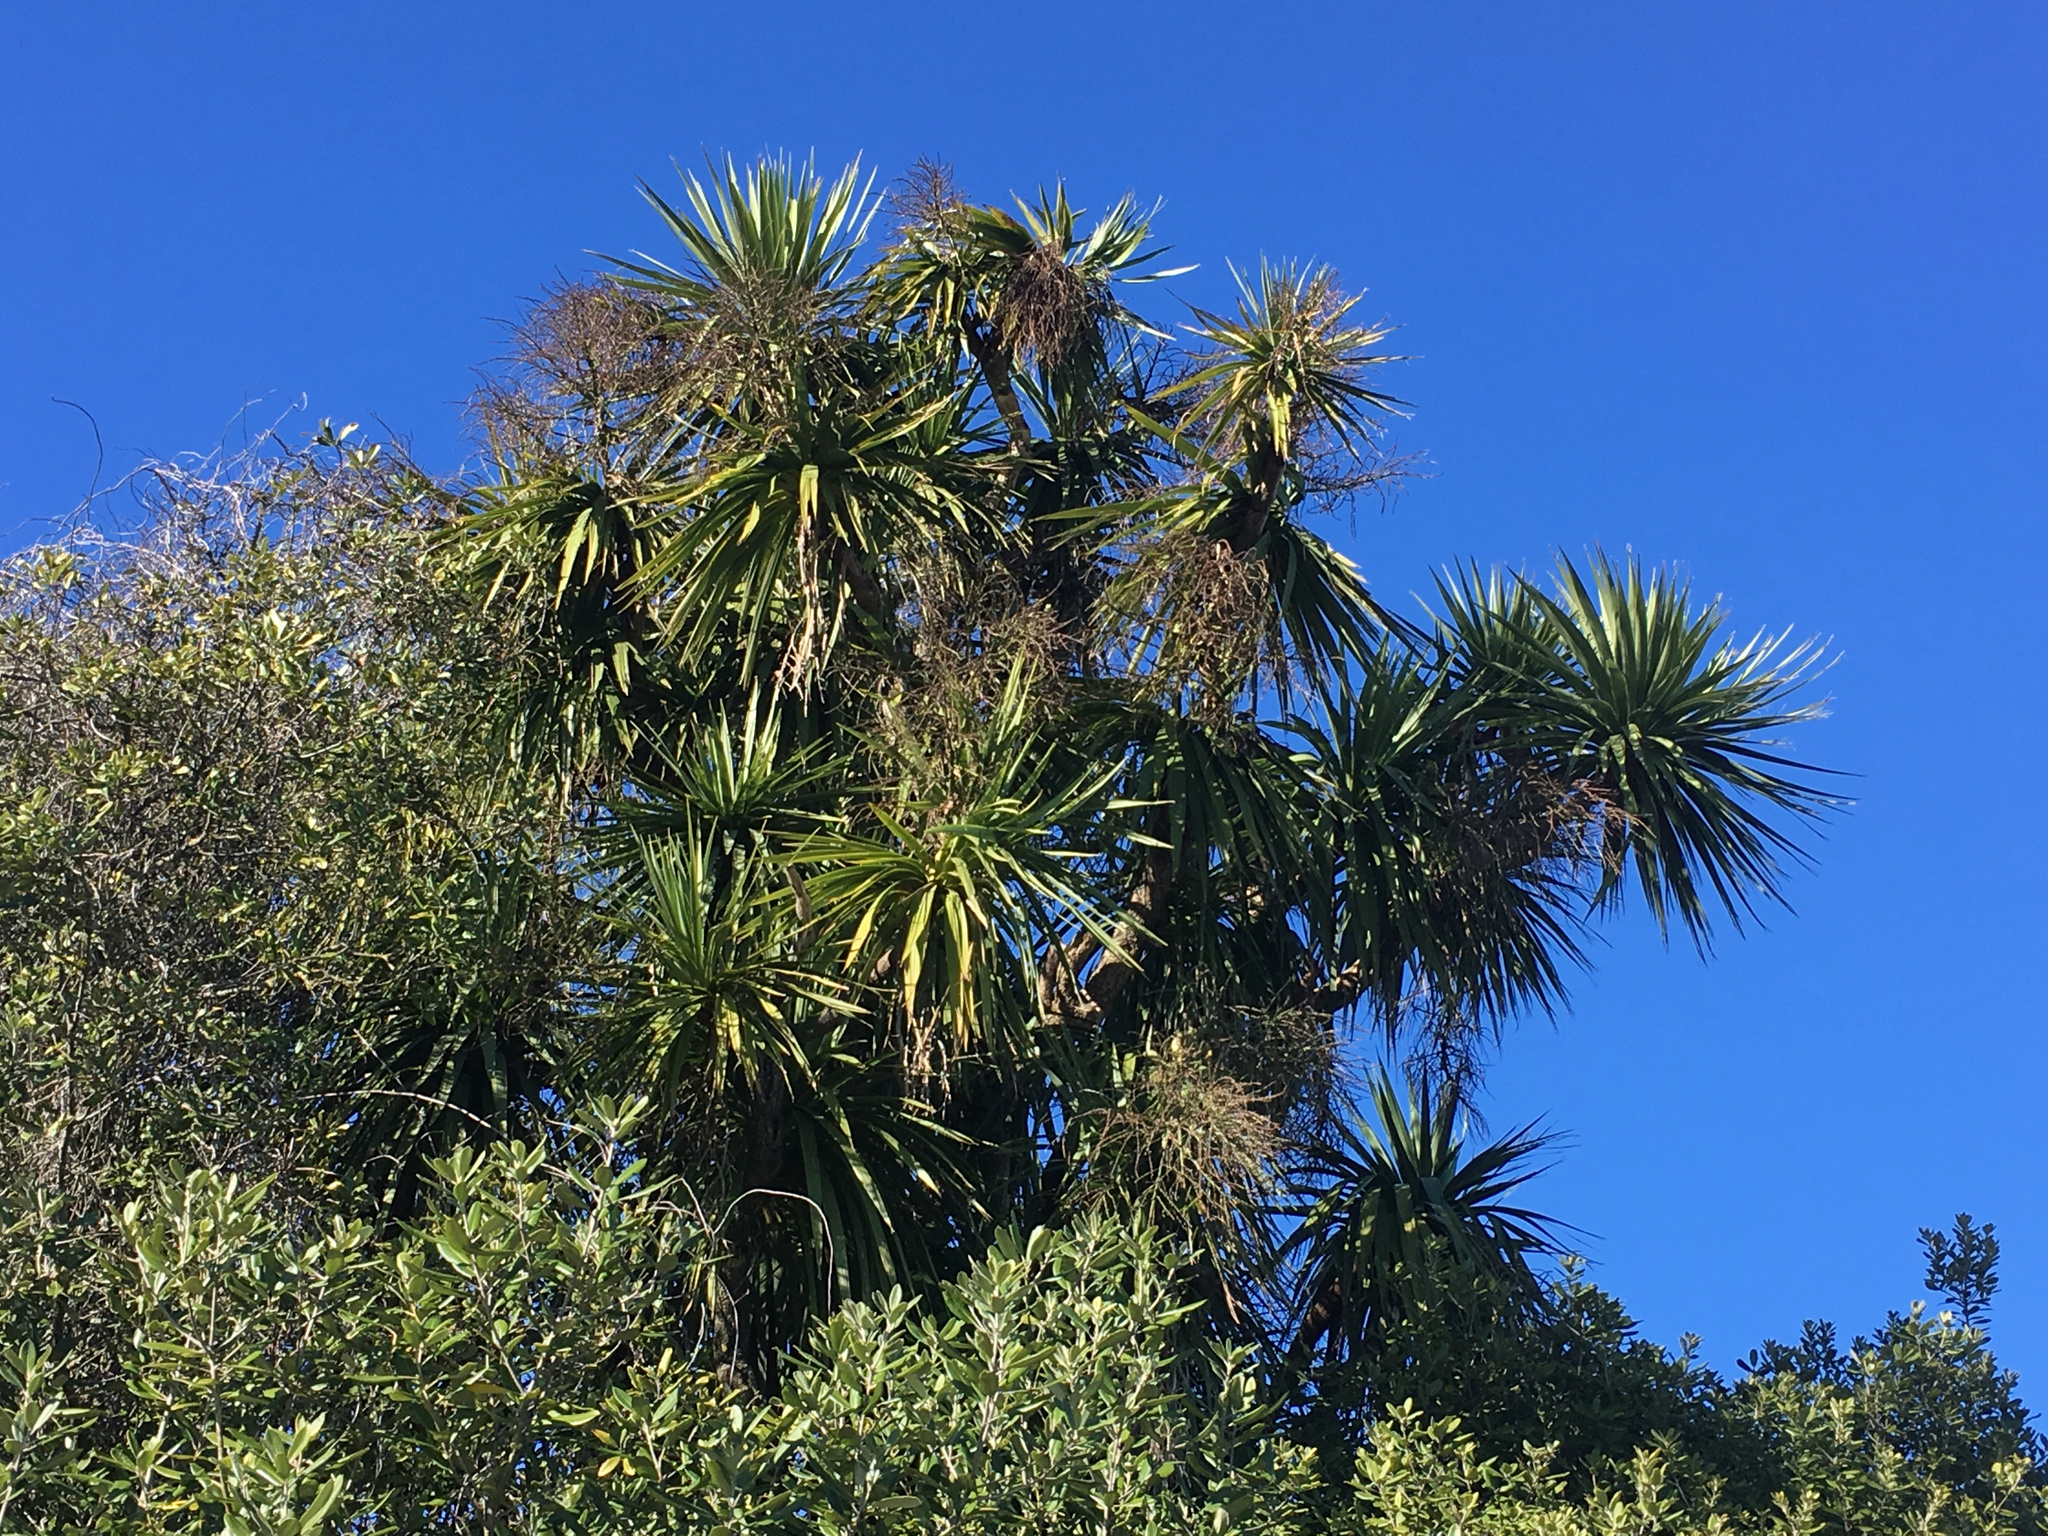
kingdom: Plantae
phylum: Tracheophyta
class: Liliopsida
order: Asparagales
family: Asparagaceae
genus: Cordyline
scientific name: Cordyline australis
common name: Cabbage-palm
